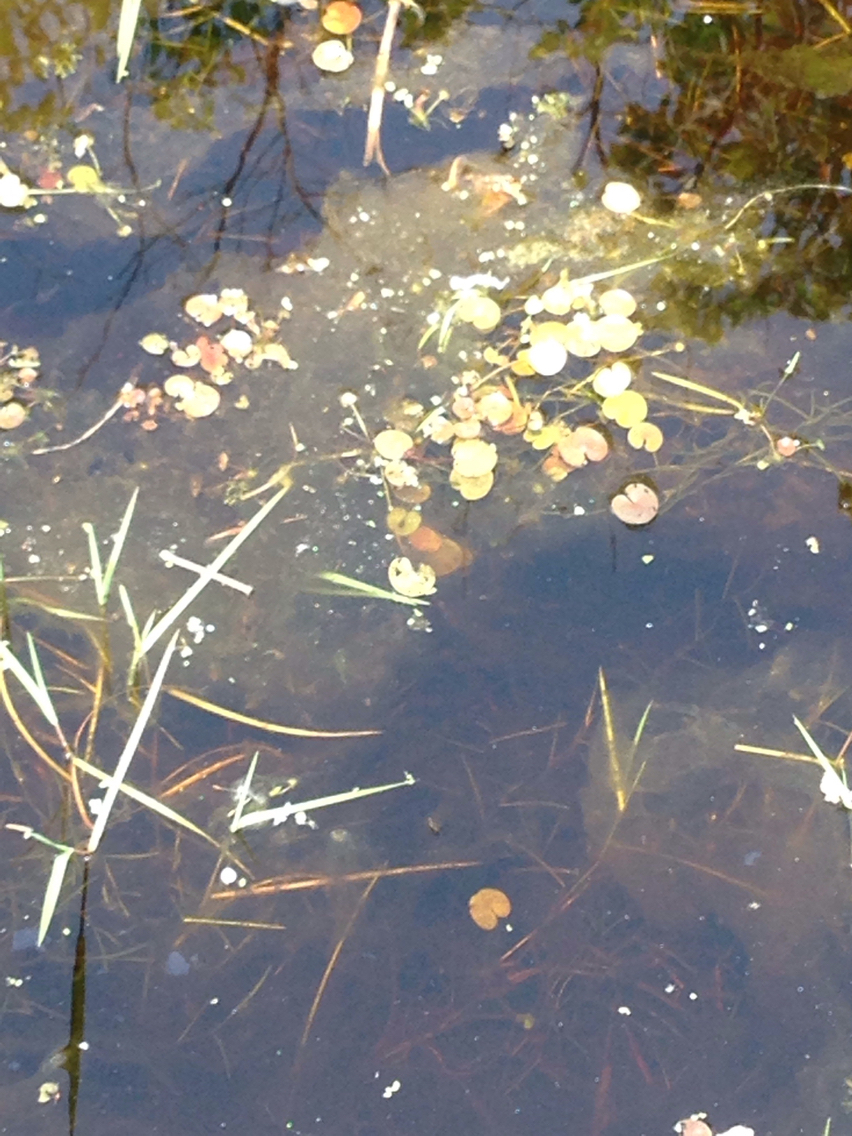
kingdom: Plantae
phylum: Tracheophyta
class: Liliopsida
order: Alismatales
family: Hydrocharitaceae
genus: Hydrocharis
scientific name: Hydrocharis morsus-ranae
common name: Frogbit
